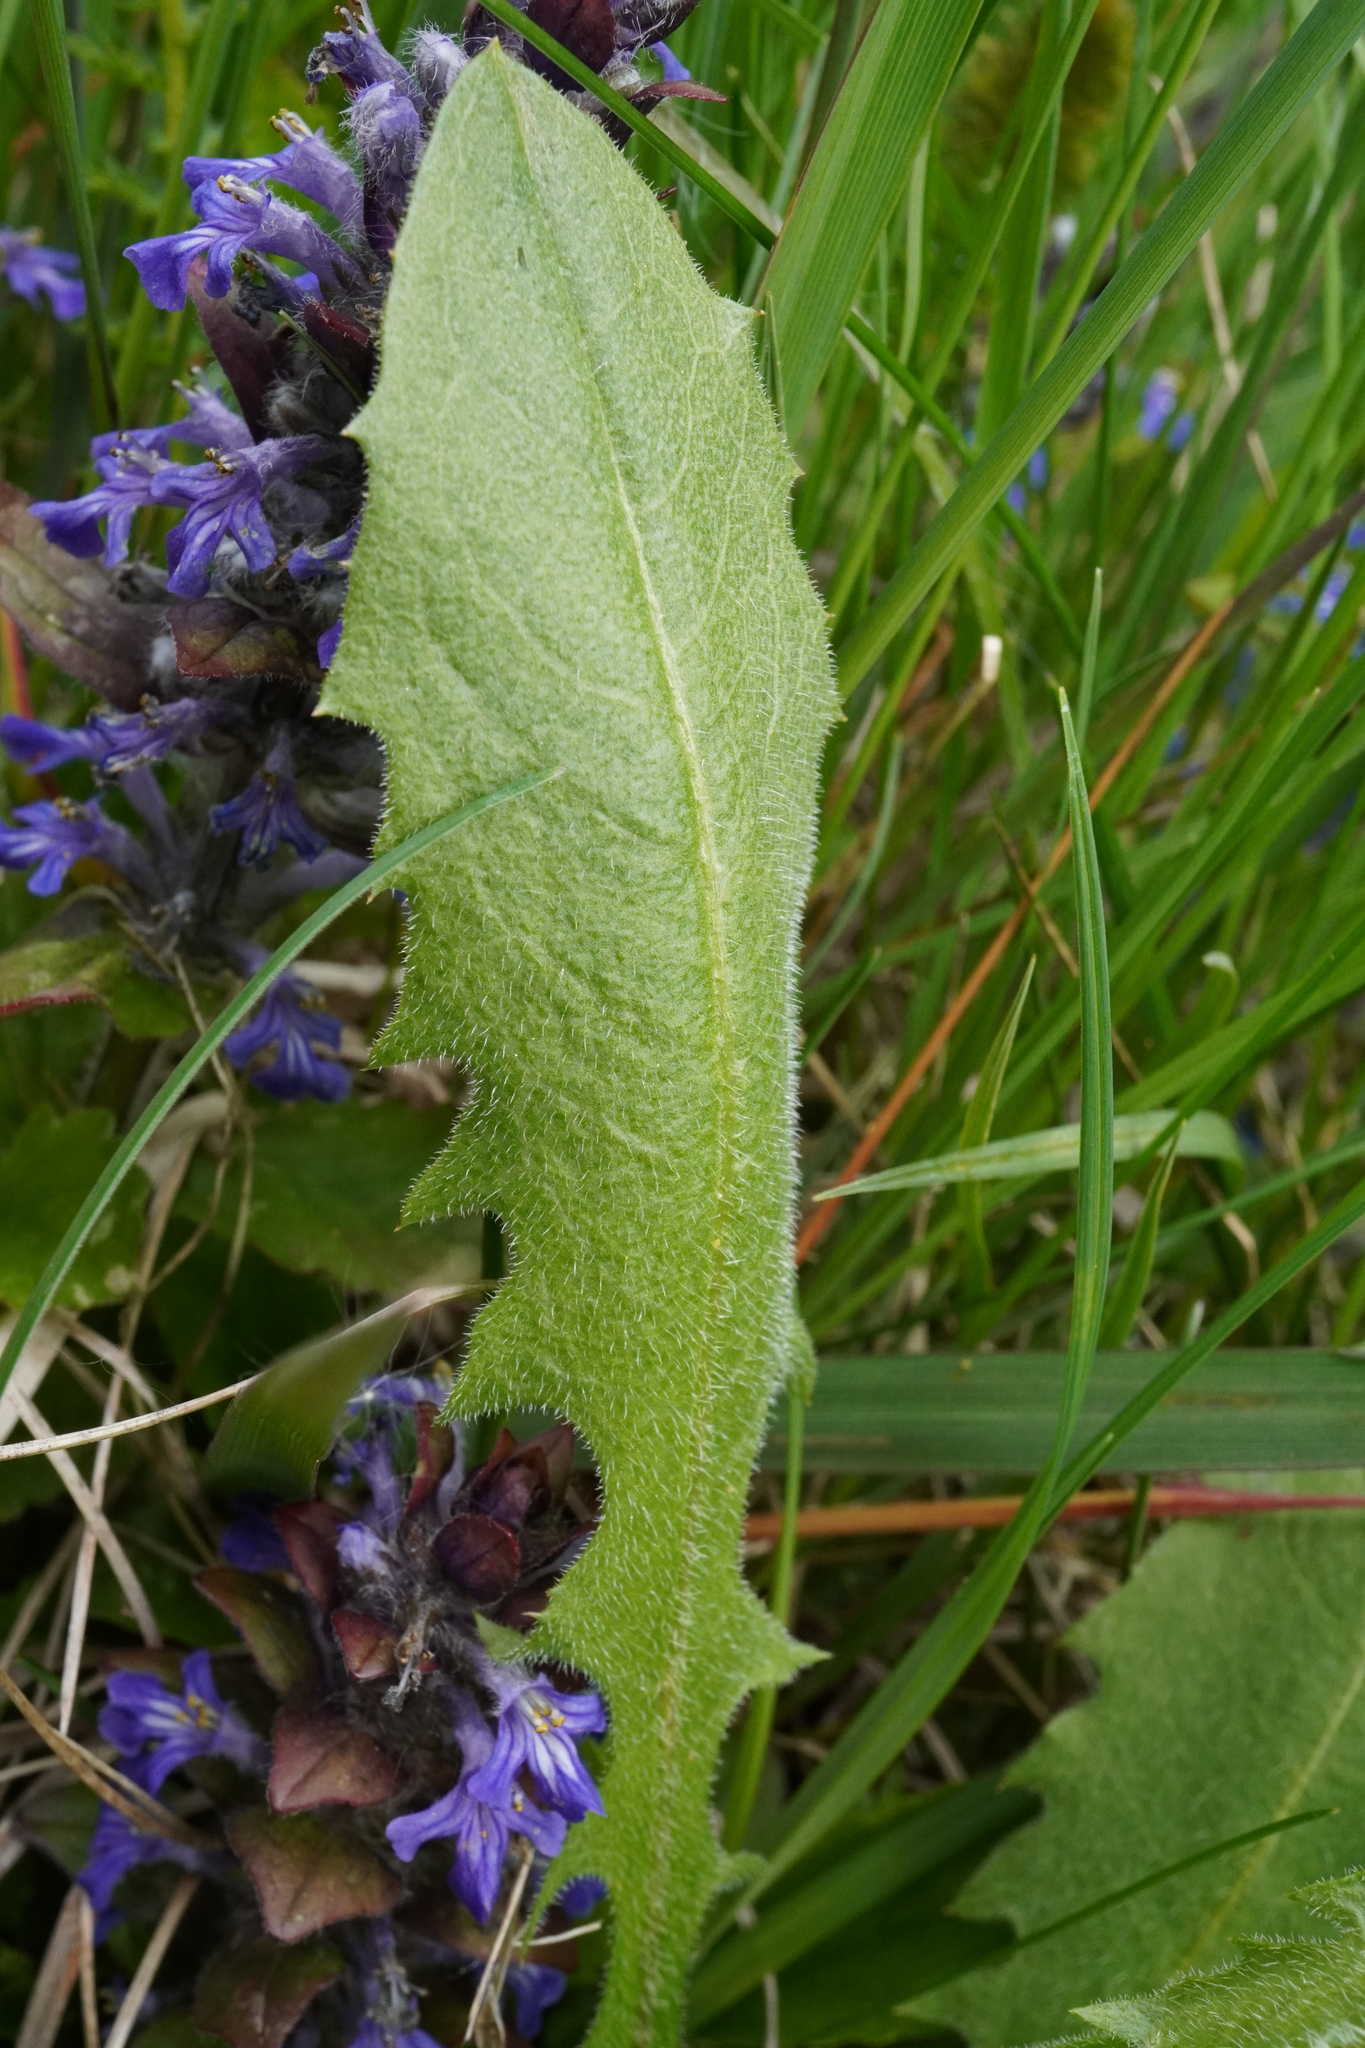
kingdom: Plantae
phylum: Tracheophyta
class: Magnoliopsida
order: Asterales
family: Asteraceae
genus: Leontodon
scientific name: Leontodon hispidus
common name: Rough hawkbit
